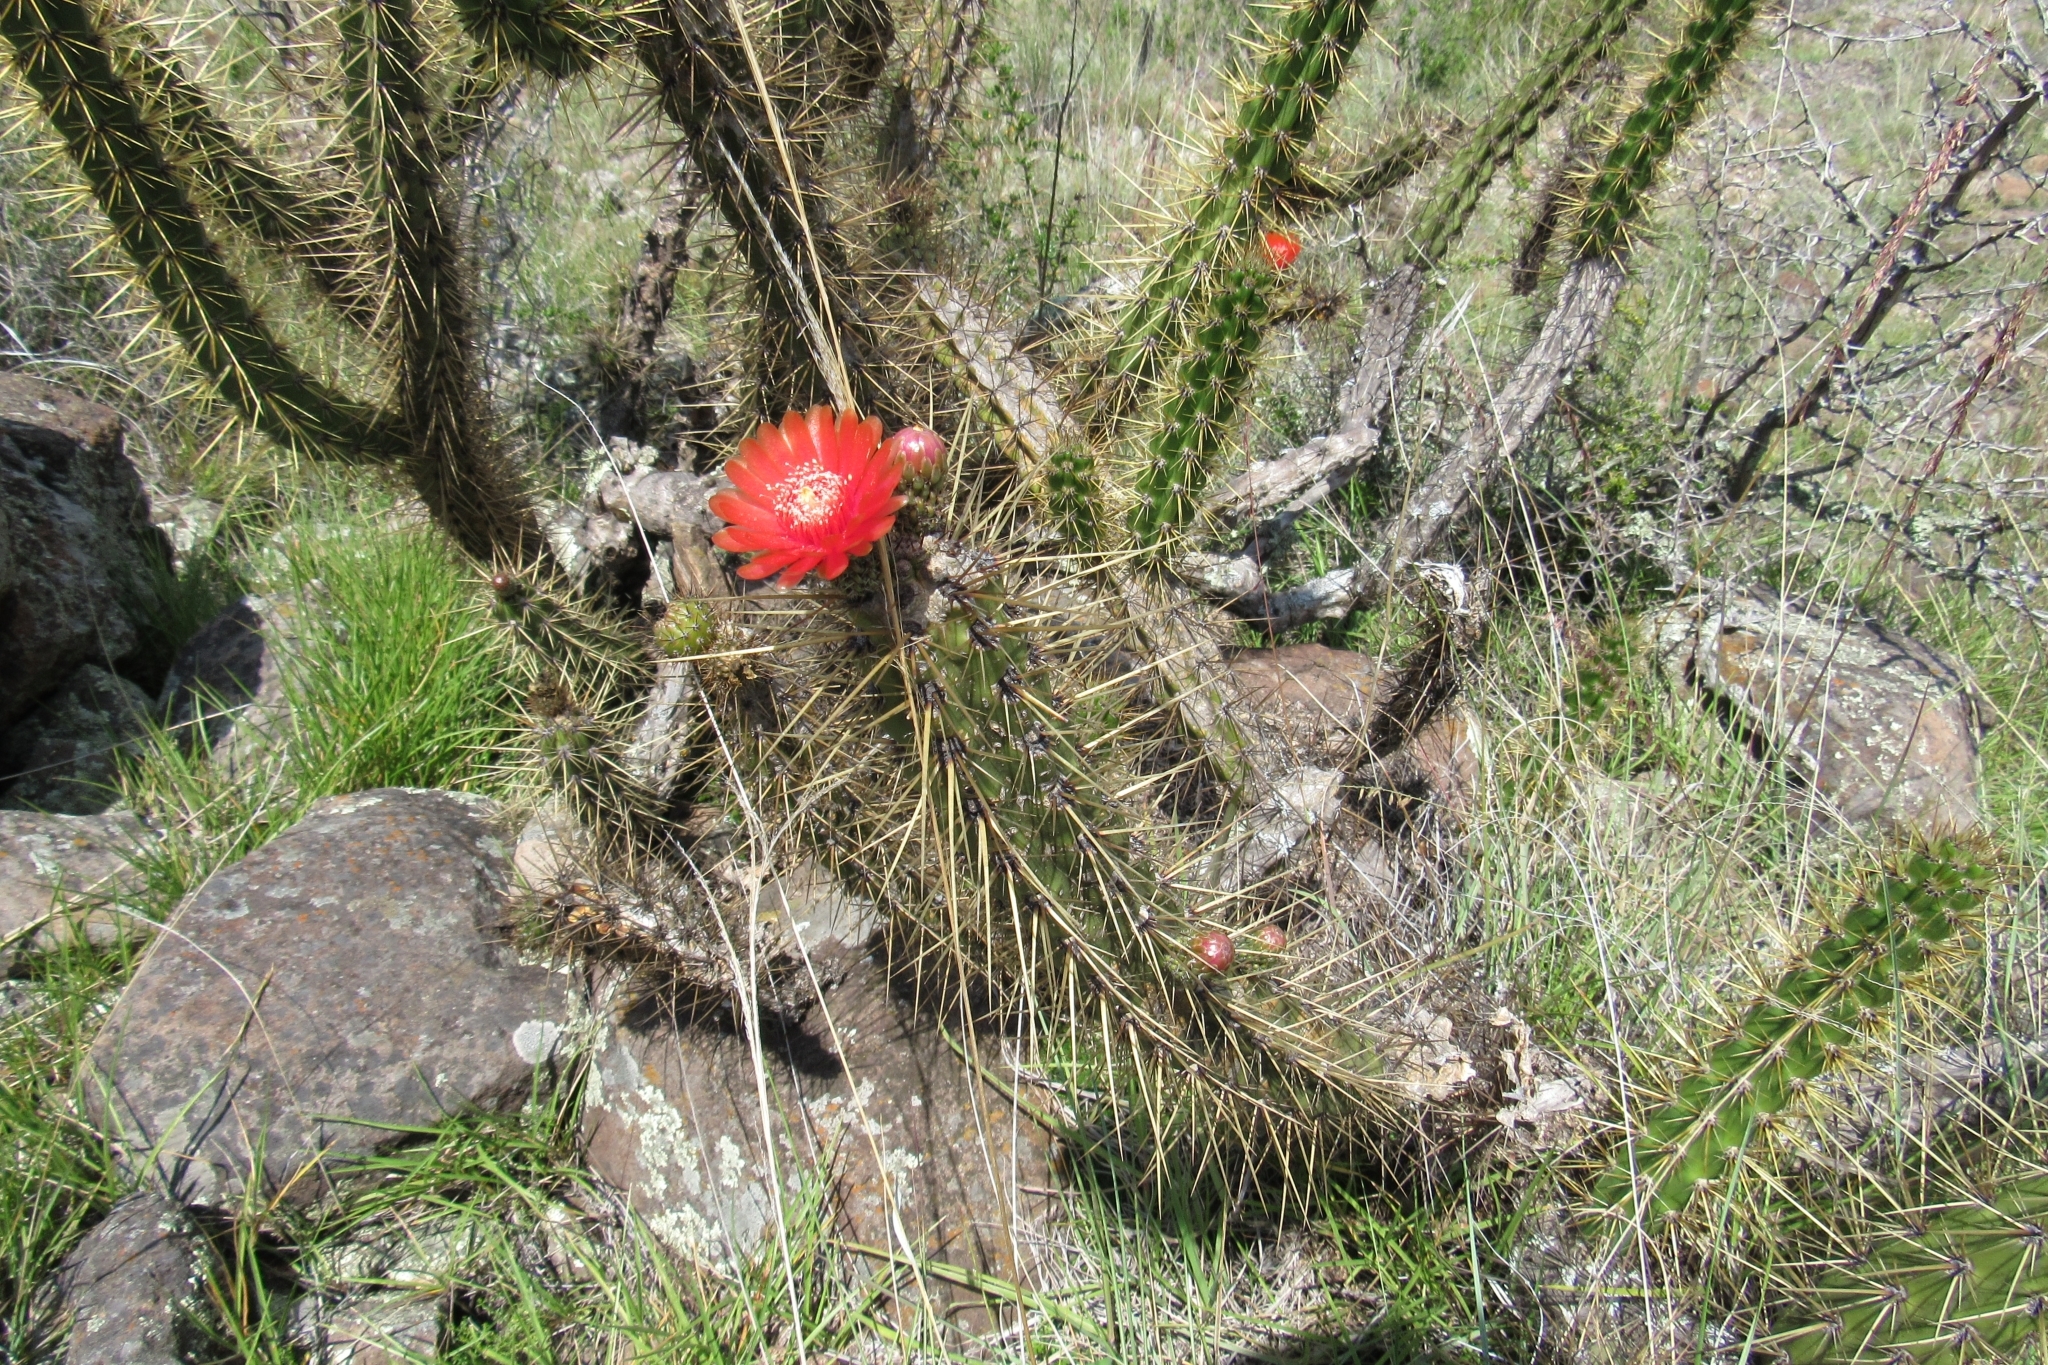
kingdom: Plantae
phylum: Tracheophyta
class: Magnoliopsida
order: Caryophyllales
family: Cactaceae
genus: Corryocactus
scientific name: Corryocactus ayacuchoensis
